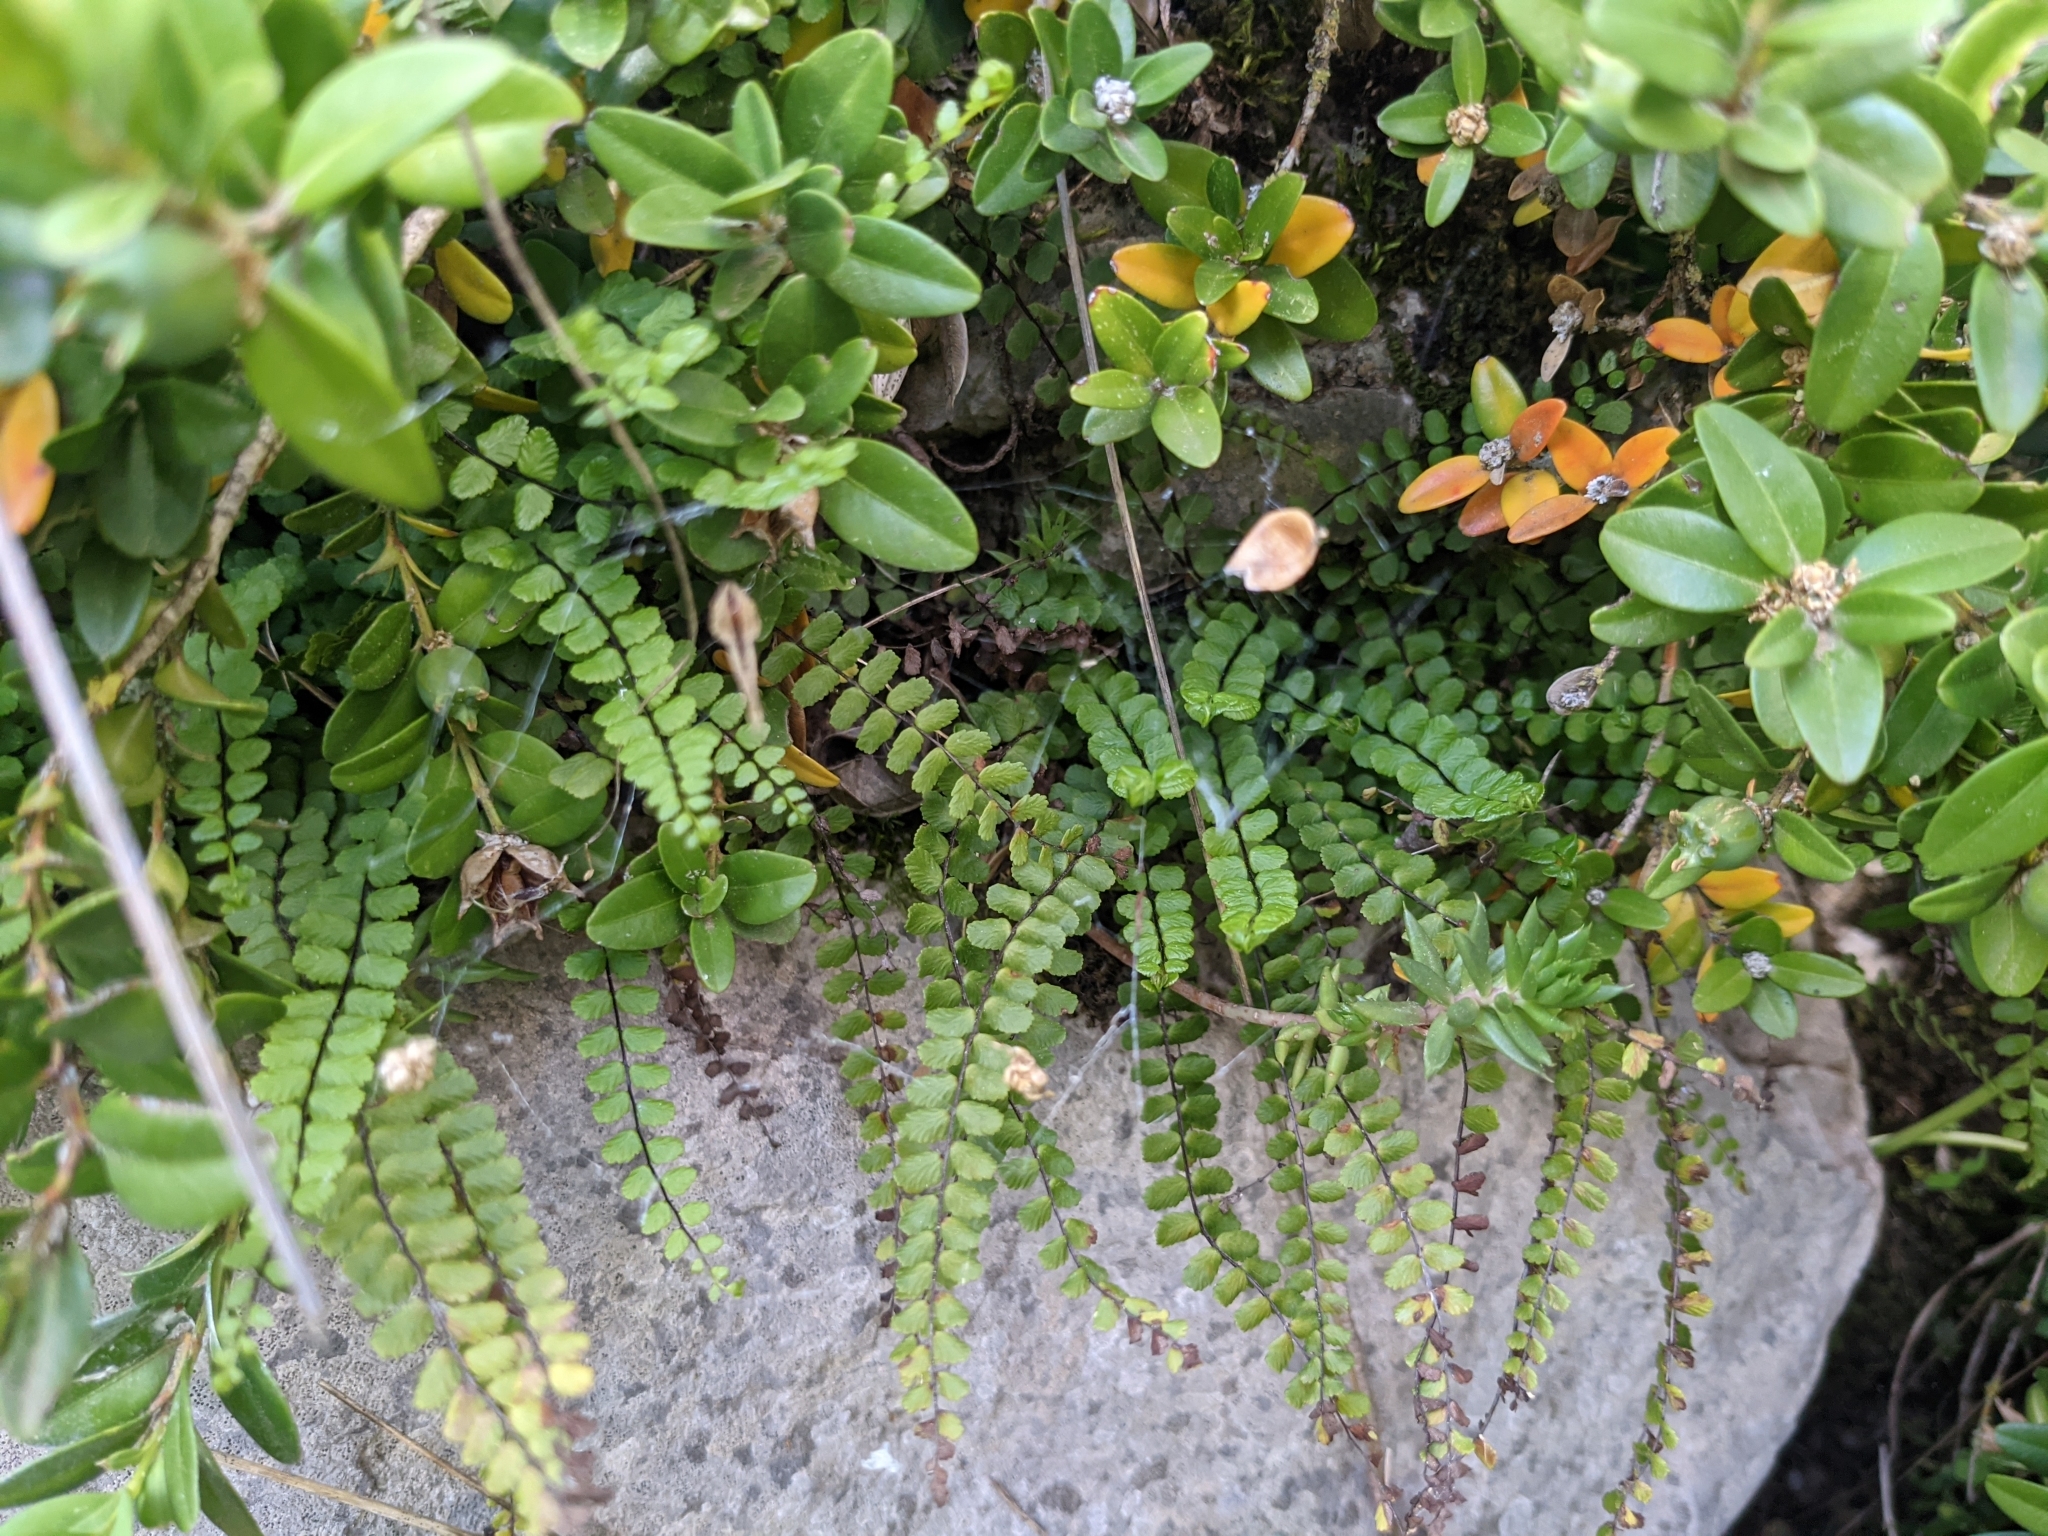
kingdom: Plantae
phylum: Tracheophyta
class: Polypodiopsida
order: Polypodiales
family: Aspleniaceae
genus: Asplenium
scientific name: Asplenium trichomanes
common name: Maidenhair spleenwort
